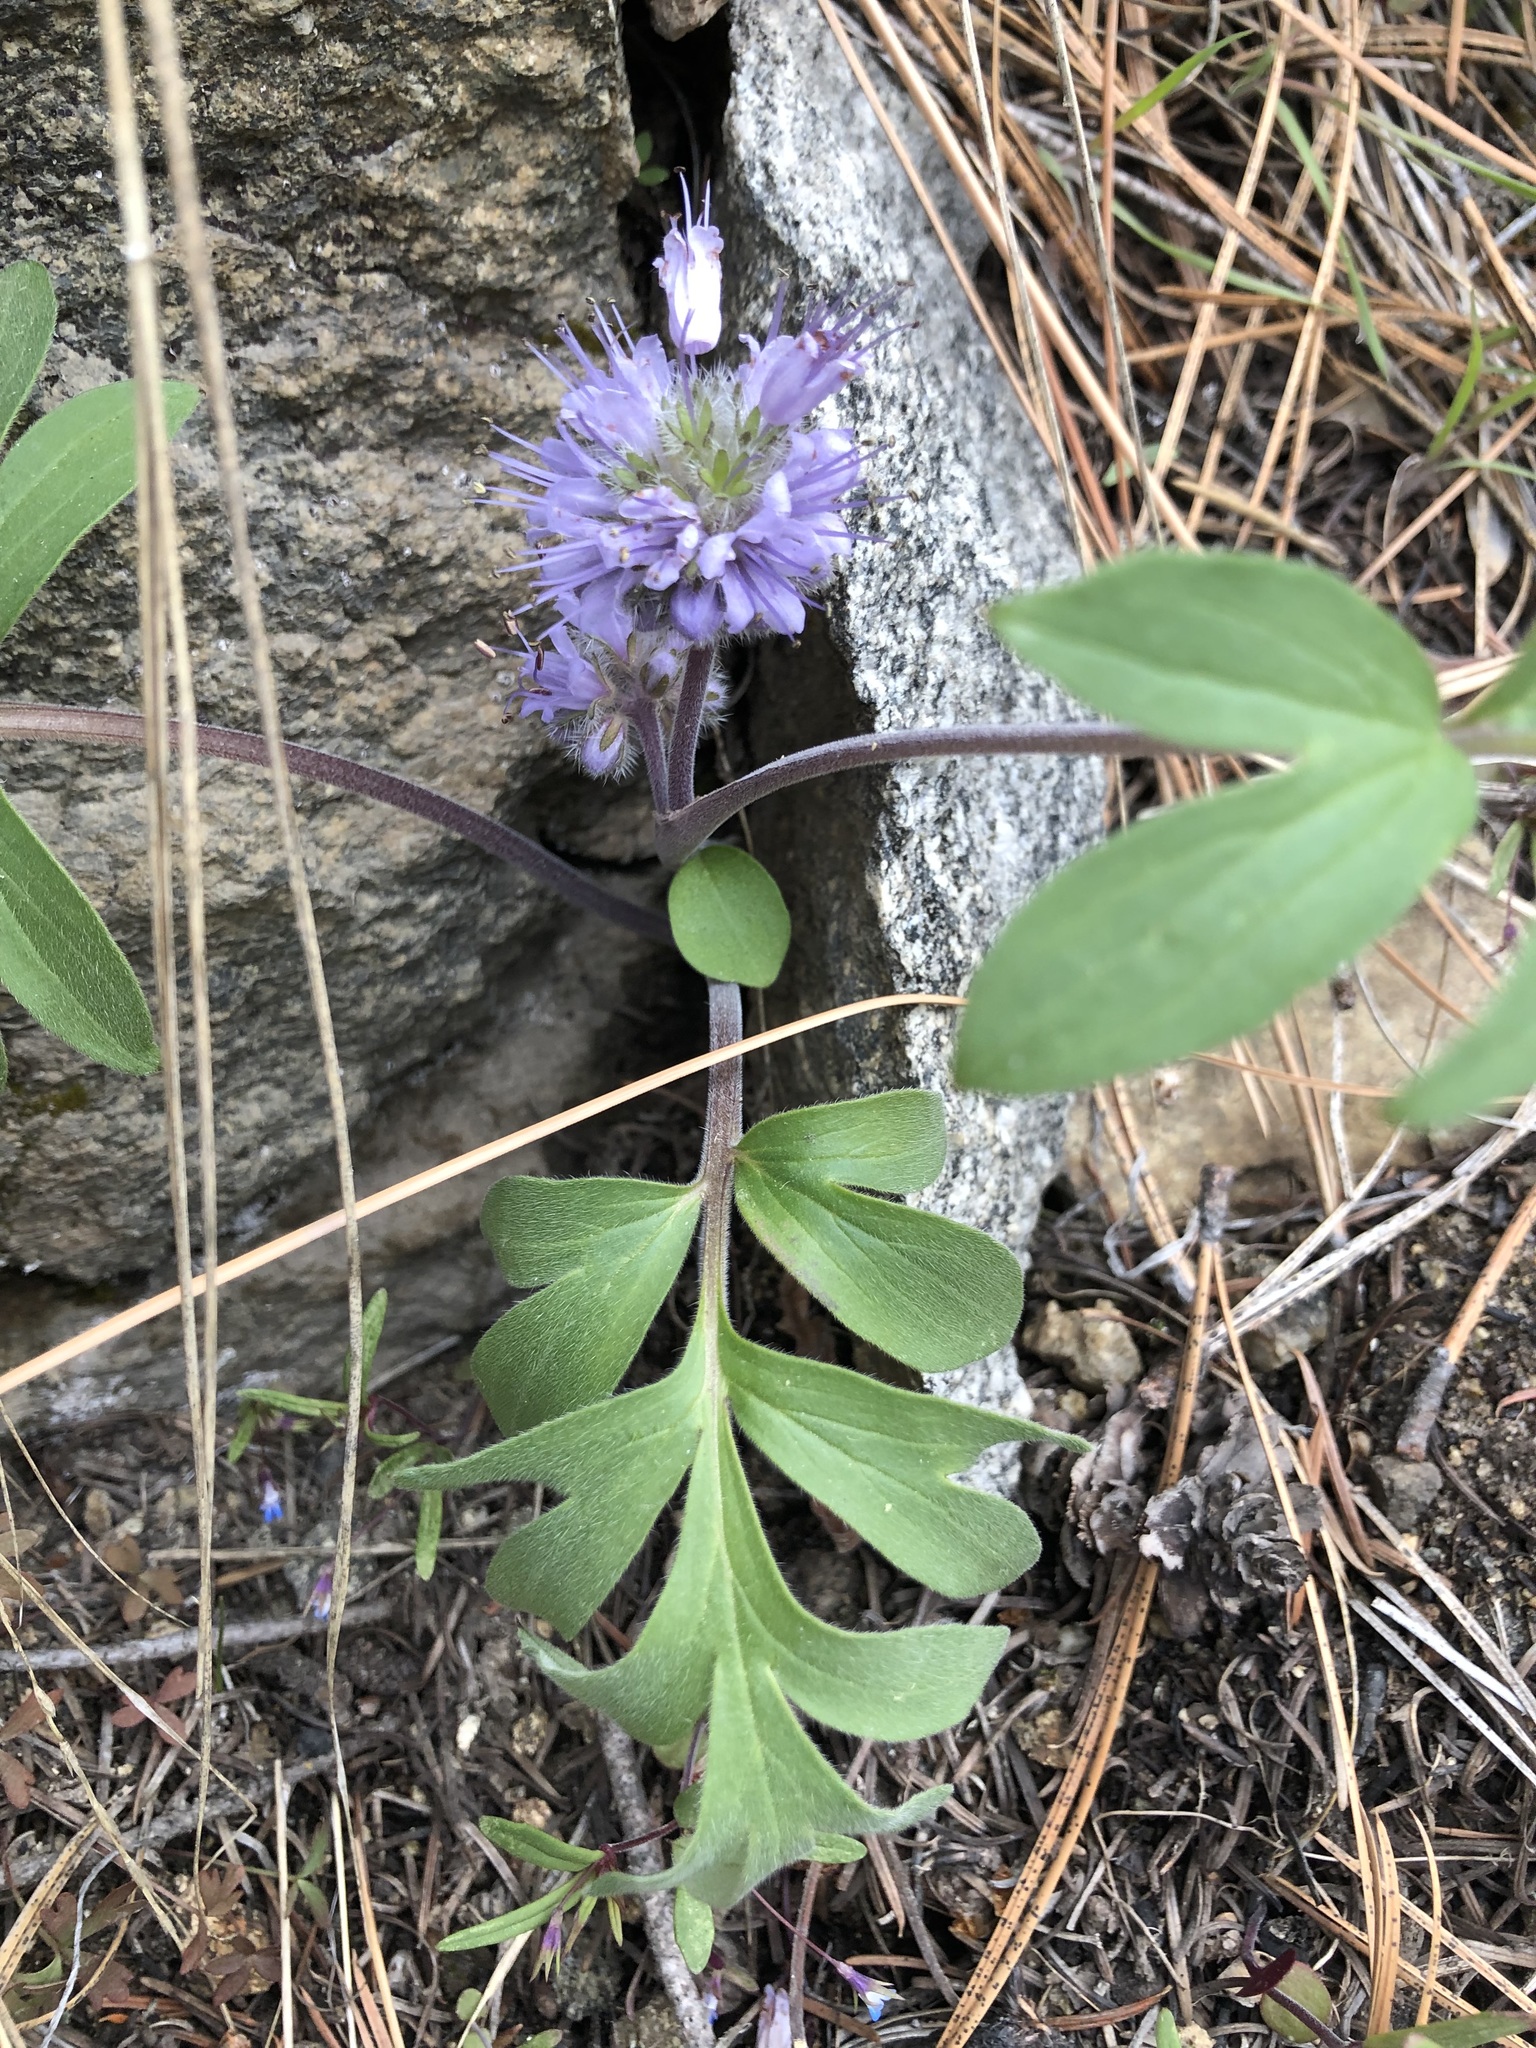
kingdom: Plantae
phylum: Tracheophyta
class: Magnoliopsida
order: Boraginales
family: Hydrophyllaceae
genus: Hydrophyllum
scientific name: Hydrophyllum capitatum
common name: Woollen-breeches
